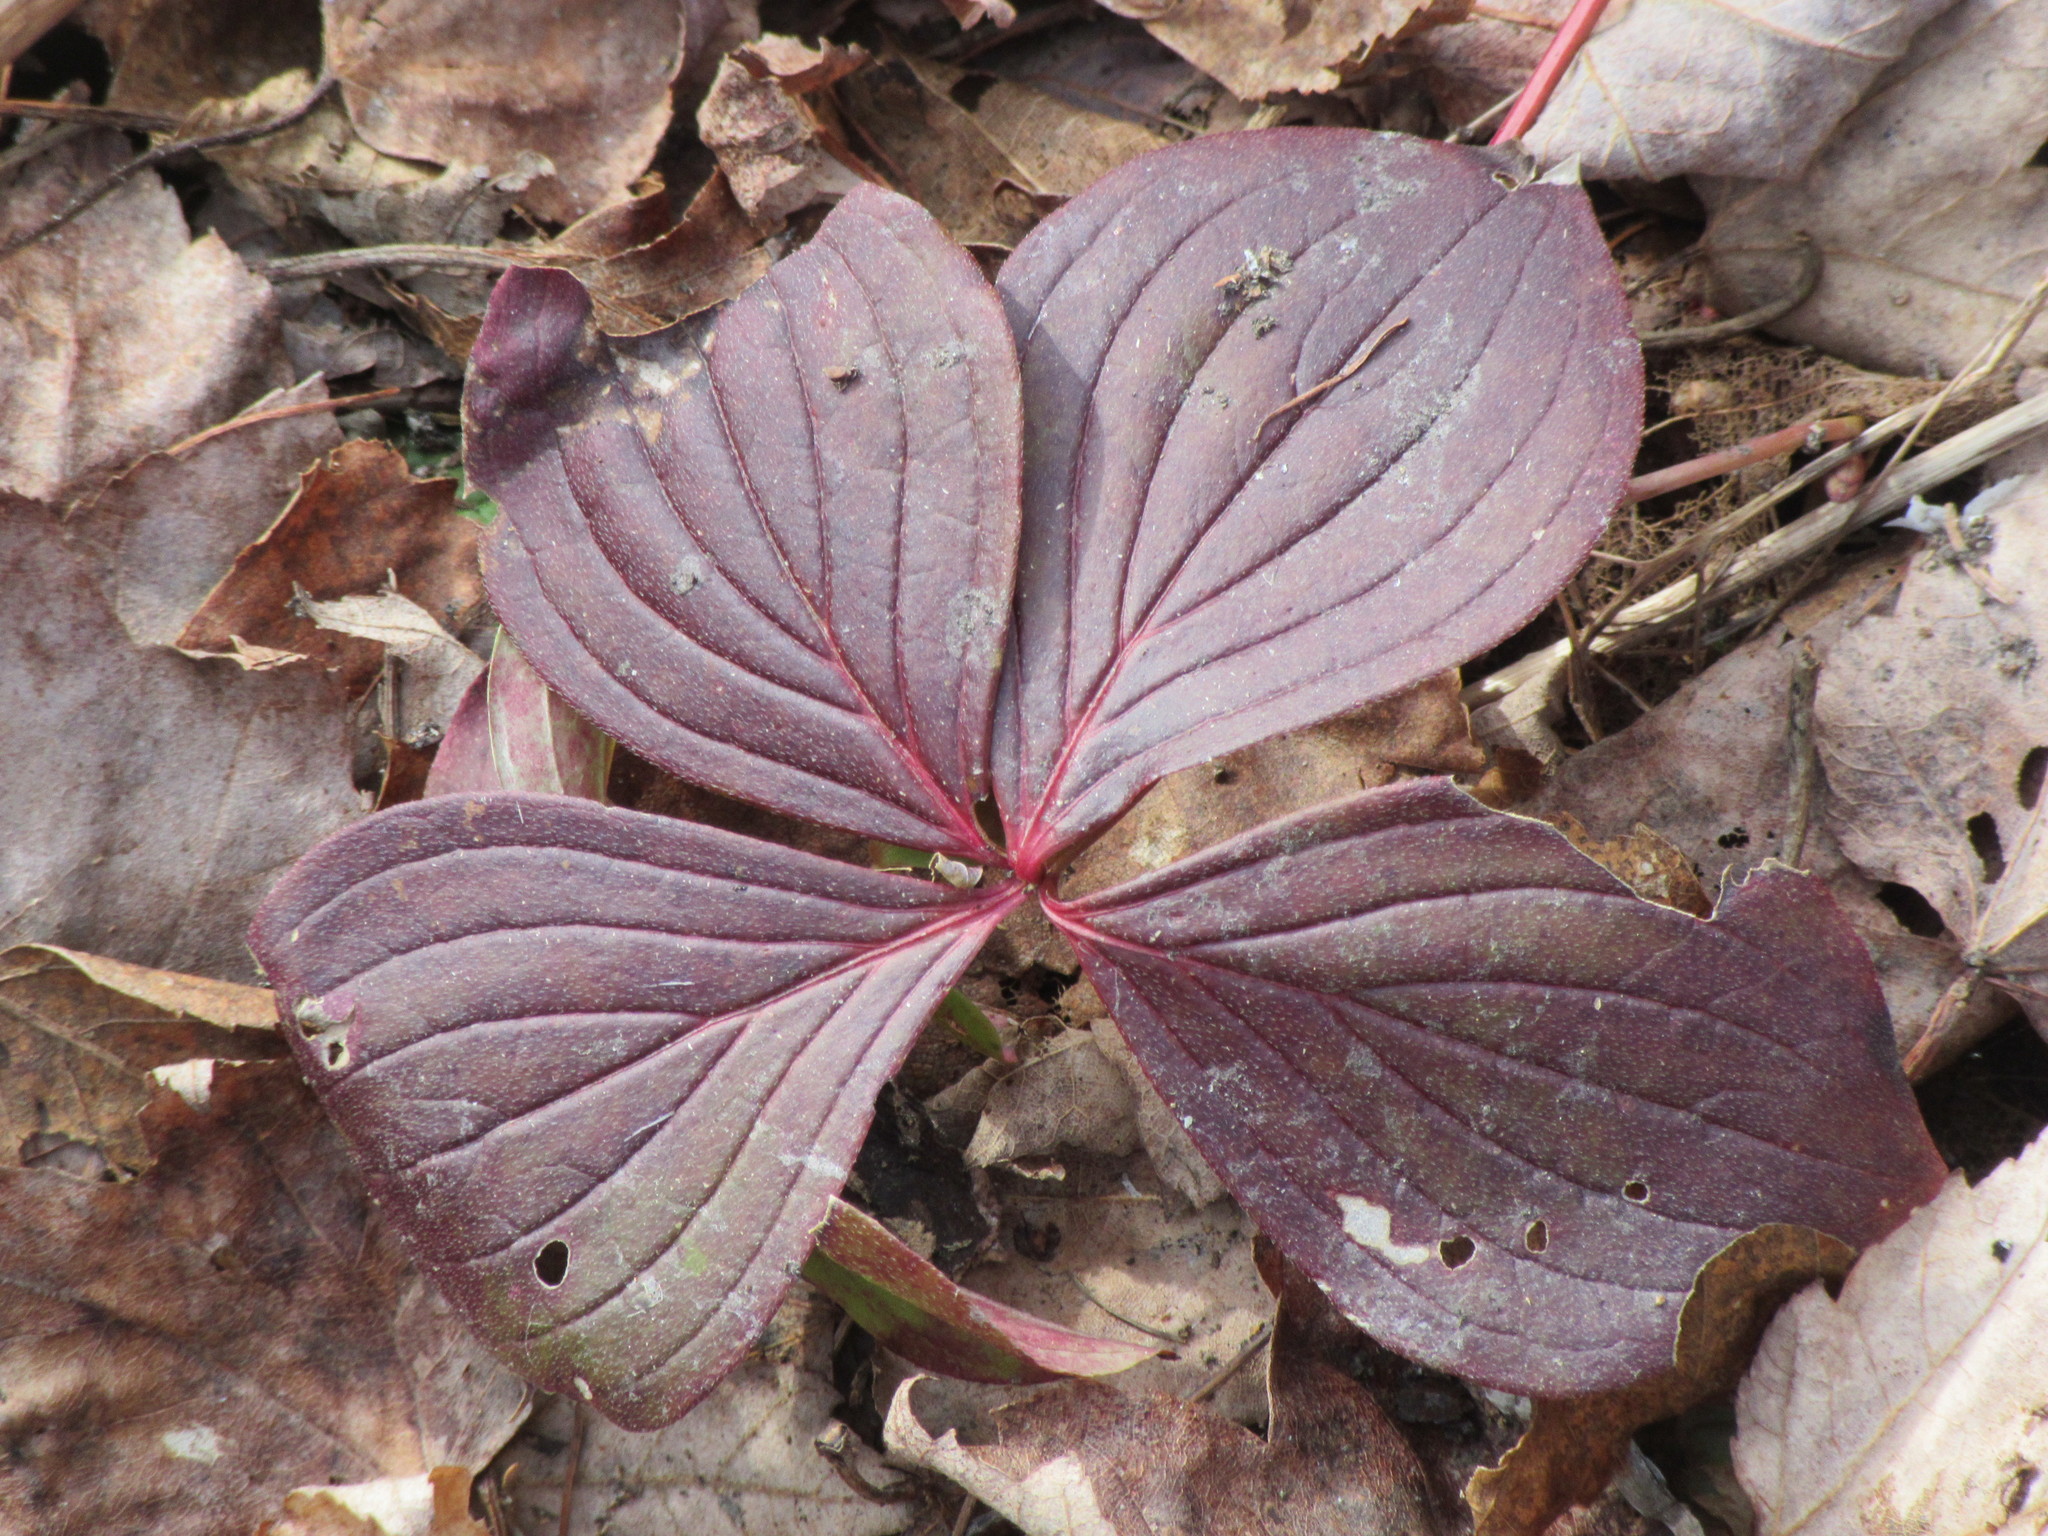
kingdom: Plantae
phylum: Tracheophyta
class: Magnoliopsida
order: Cornales
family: Cornaceae
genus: Cornus
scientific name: Cornus canadensis
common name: Creeping dogwood
